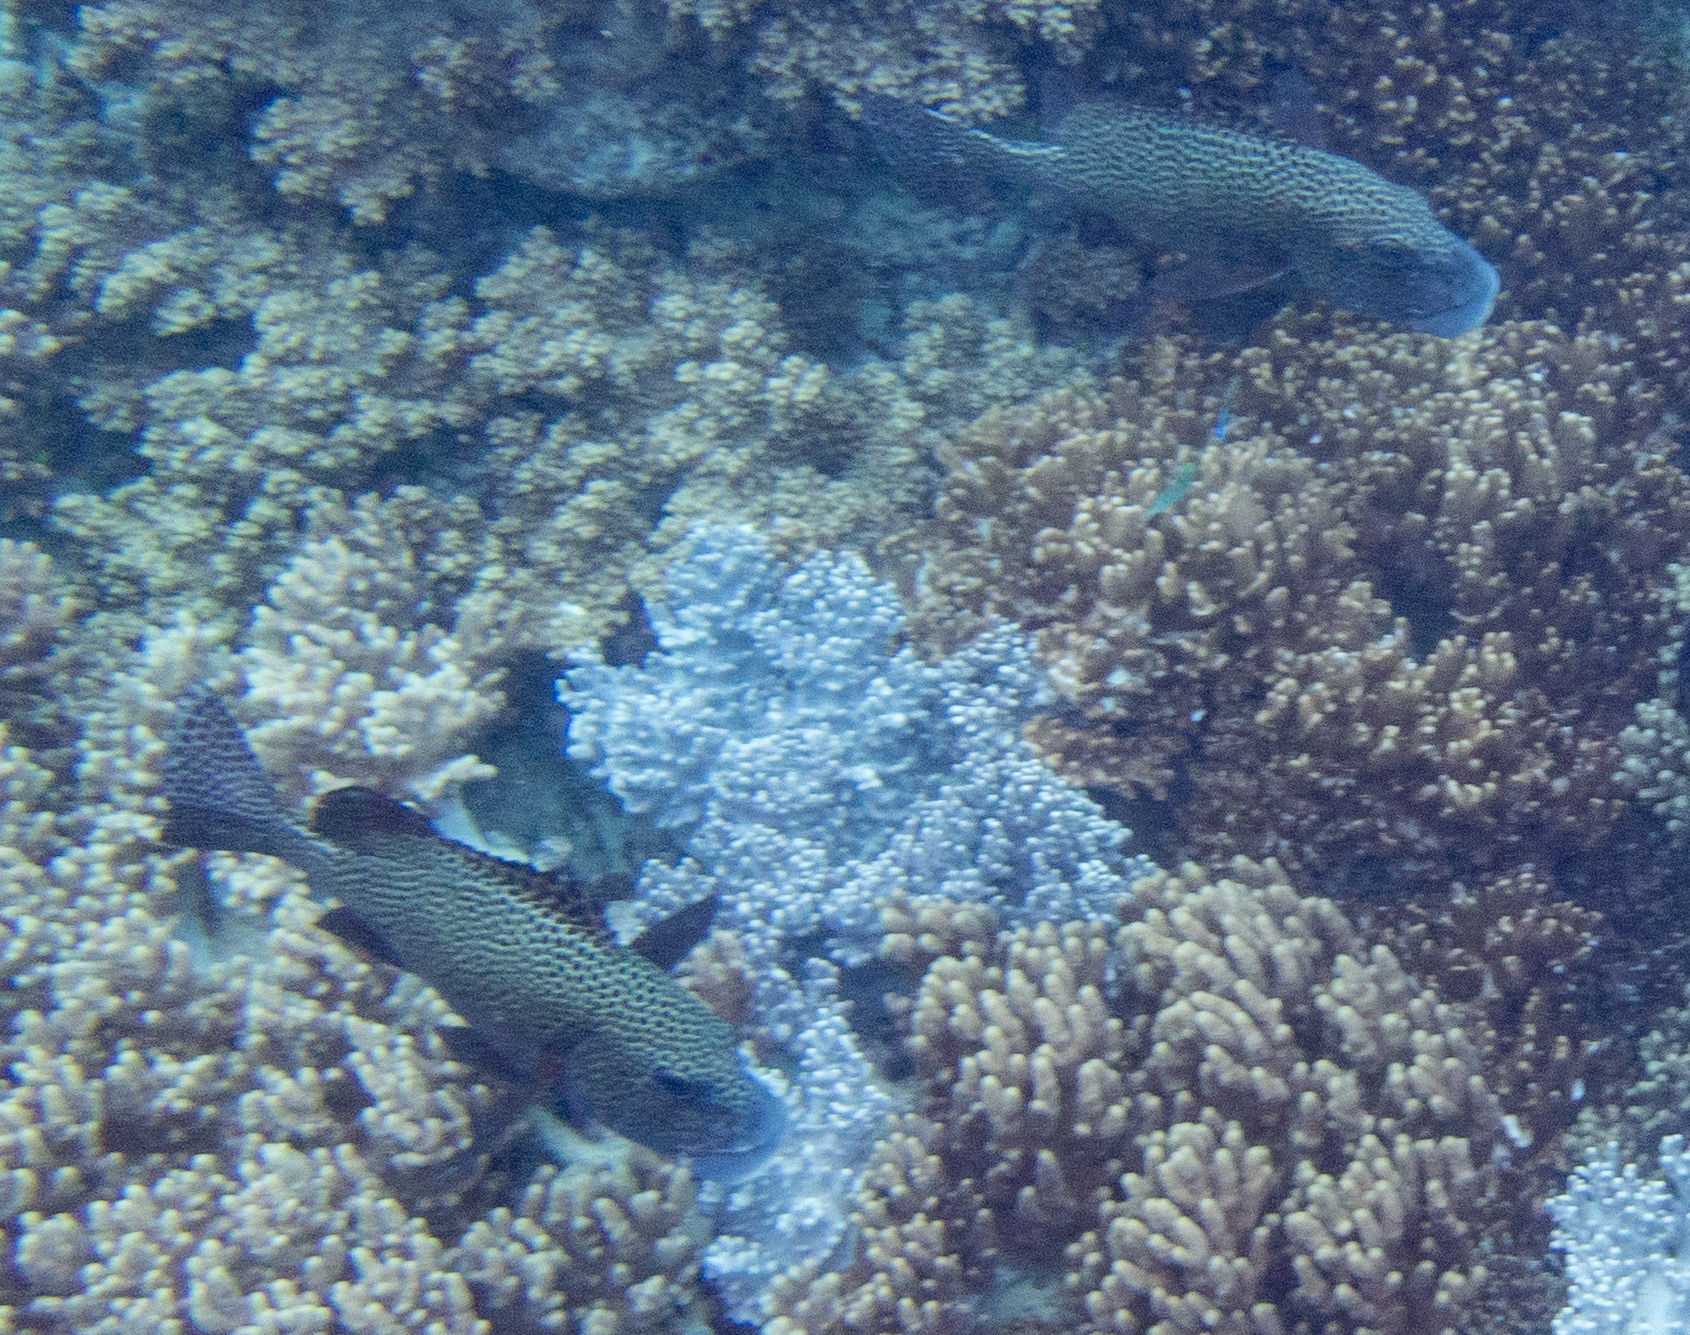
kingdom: Animalia
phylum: Chordata
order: Perciformes
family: Haemulidae
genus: Plectorhinchus
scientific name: Plectorhinchus chaetodonoides
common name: Harlequin sweetlips
